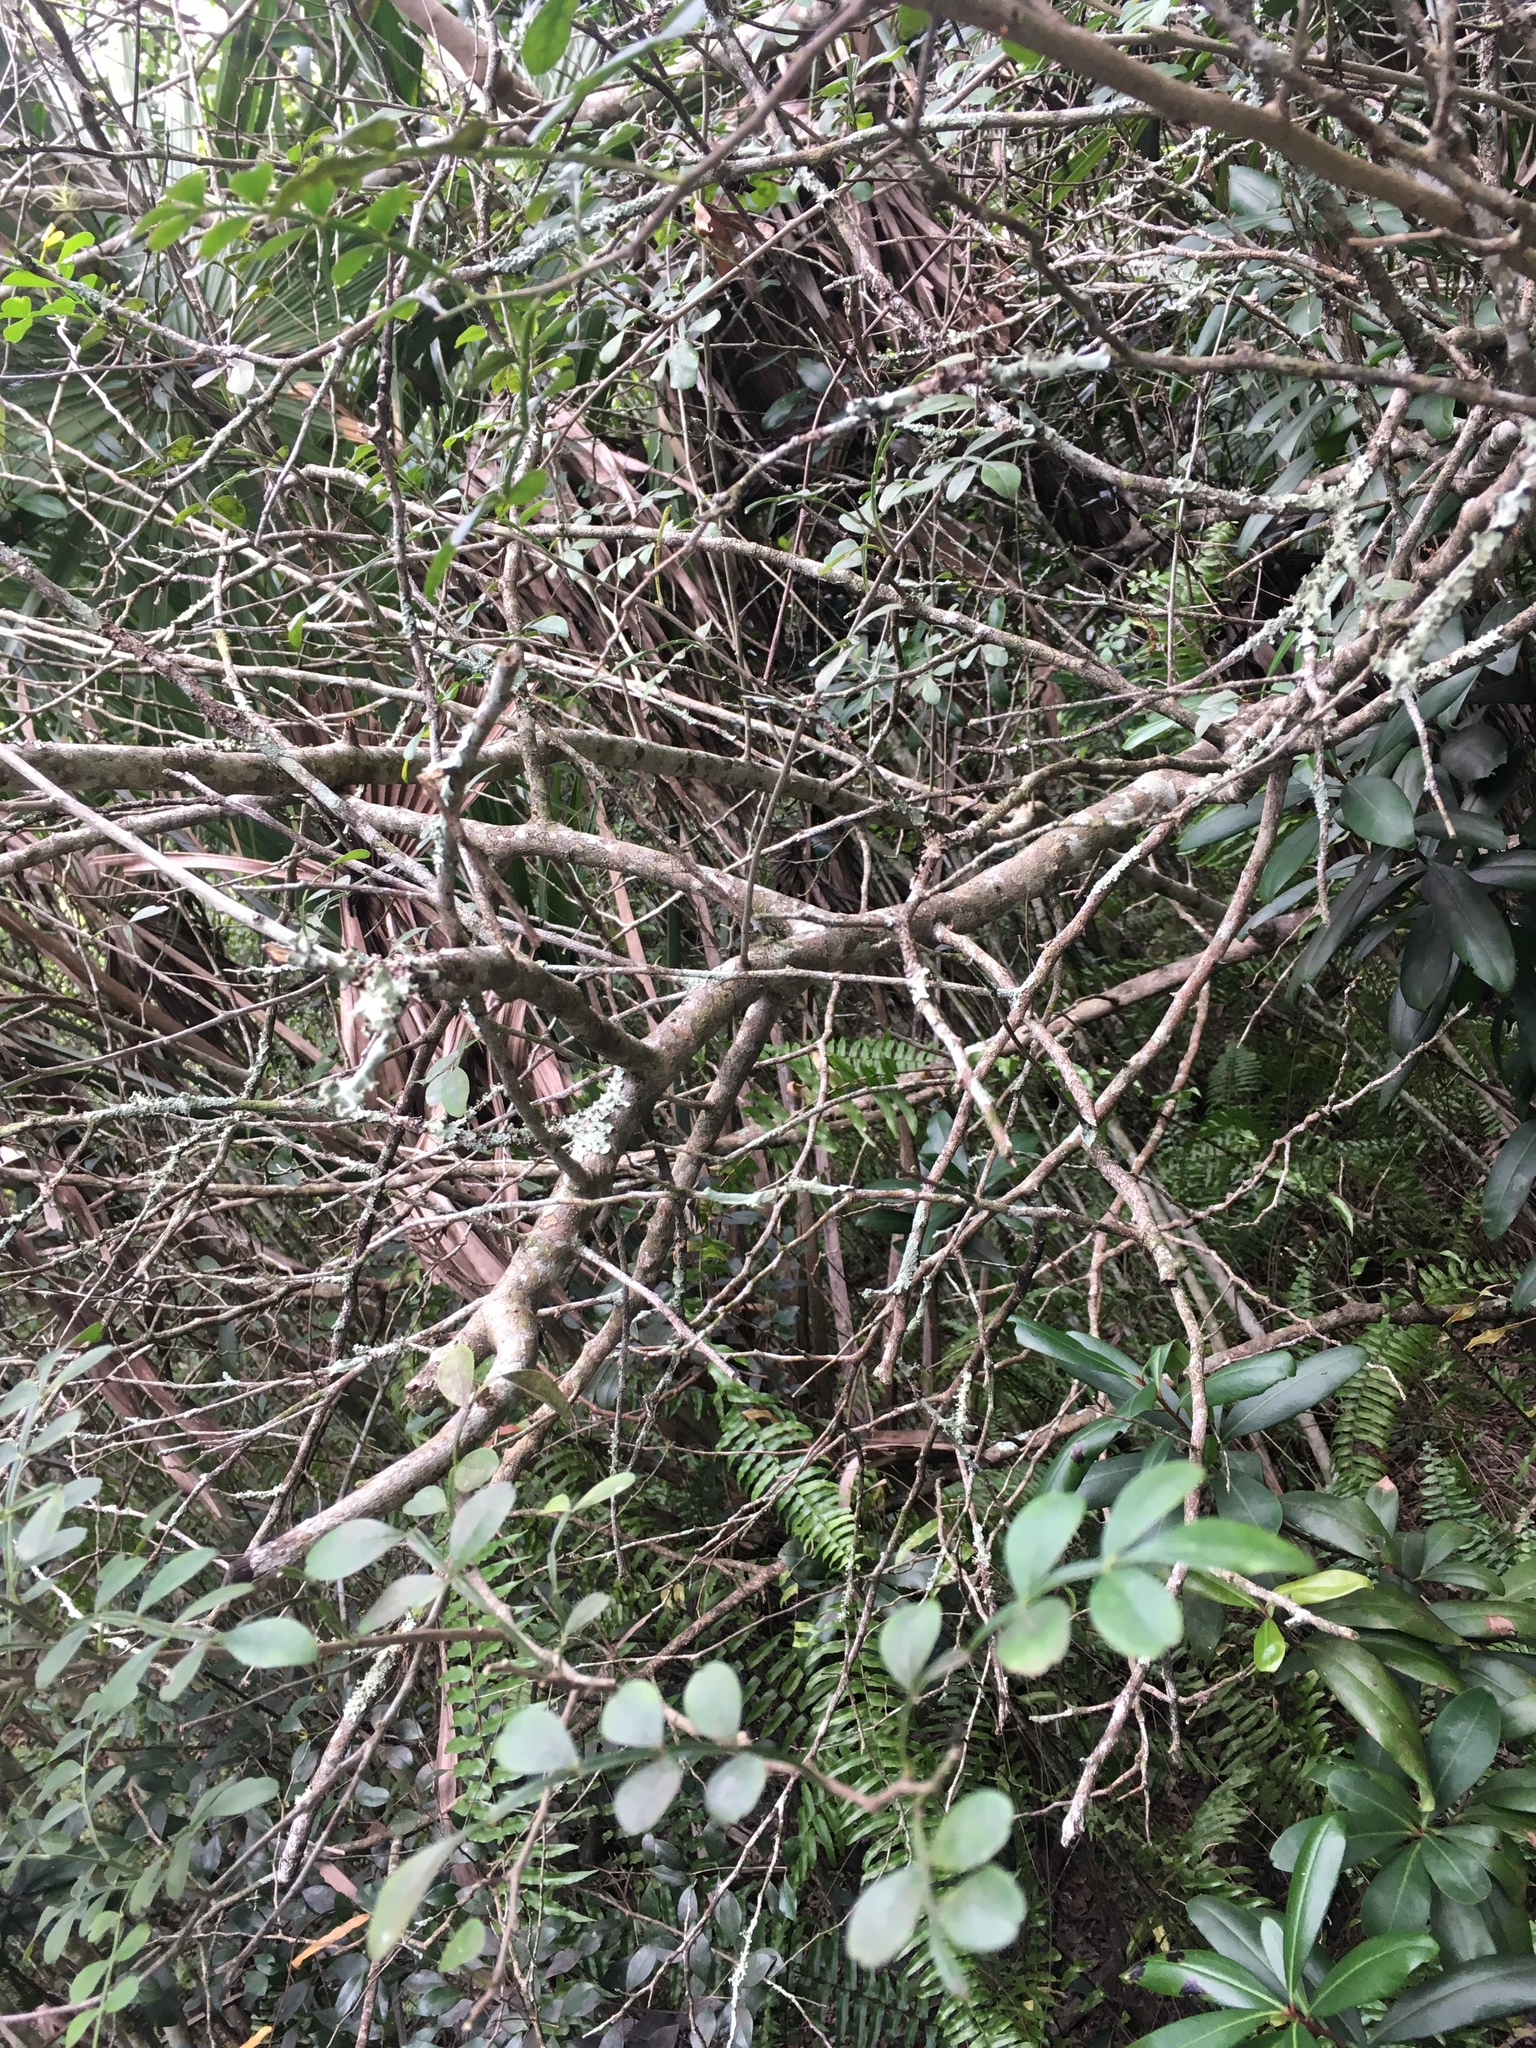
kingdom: Plantae
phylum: Tracheophyta
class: Magnoliopsida
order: Sapindales
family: Rutaceae
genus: Zanthoxylum
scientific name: Zanthoxylum fagara
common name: Lime prickly-ash
